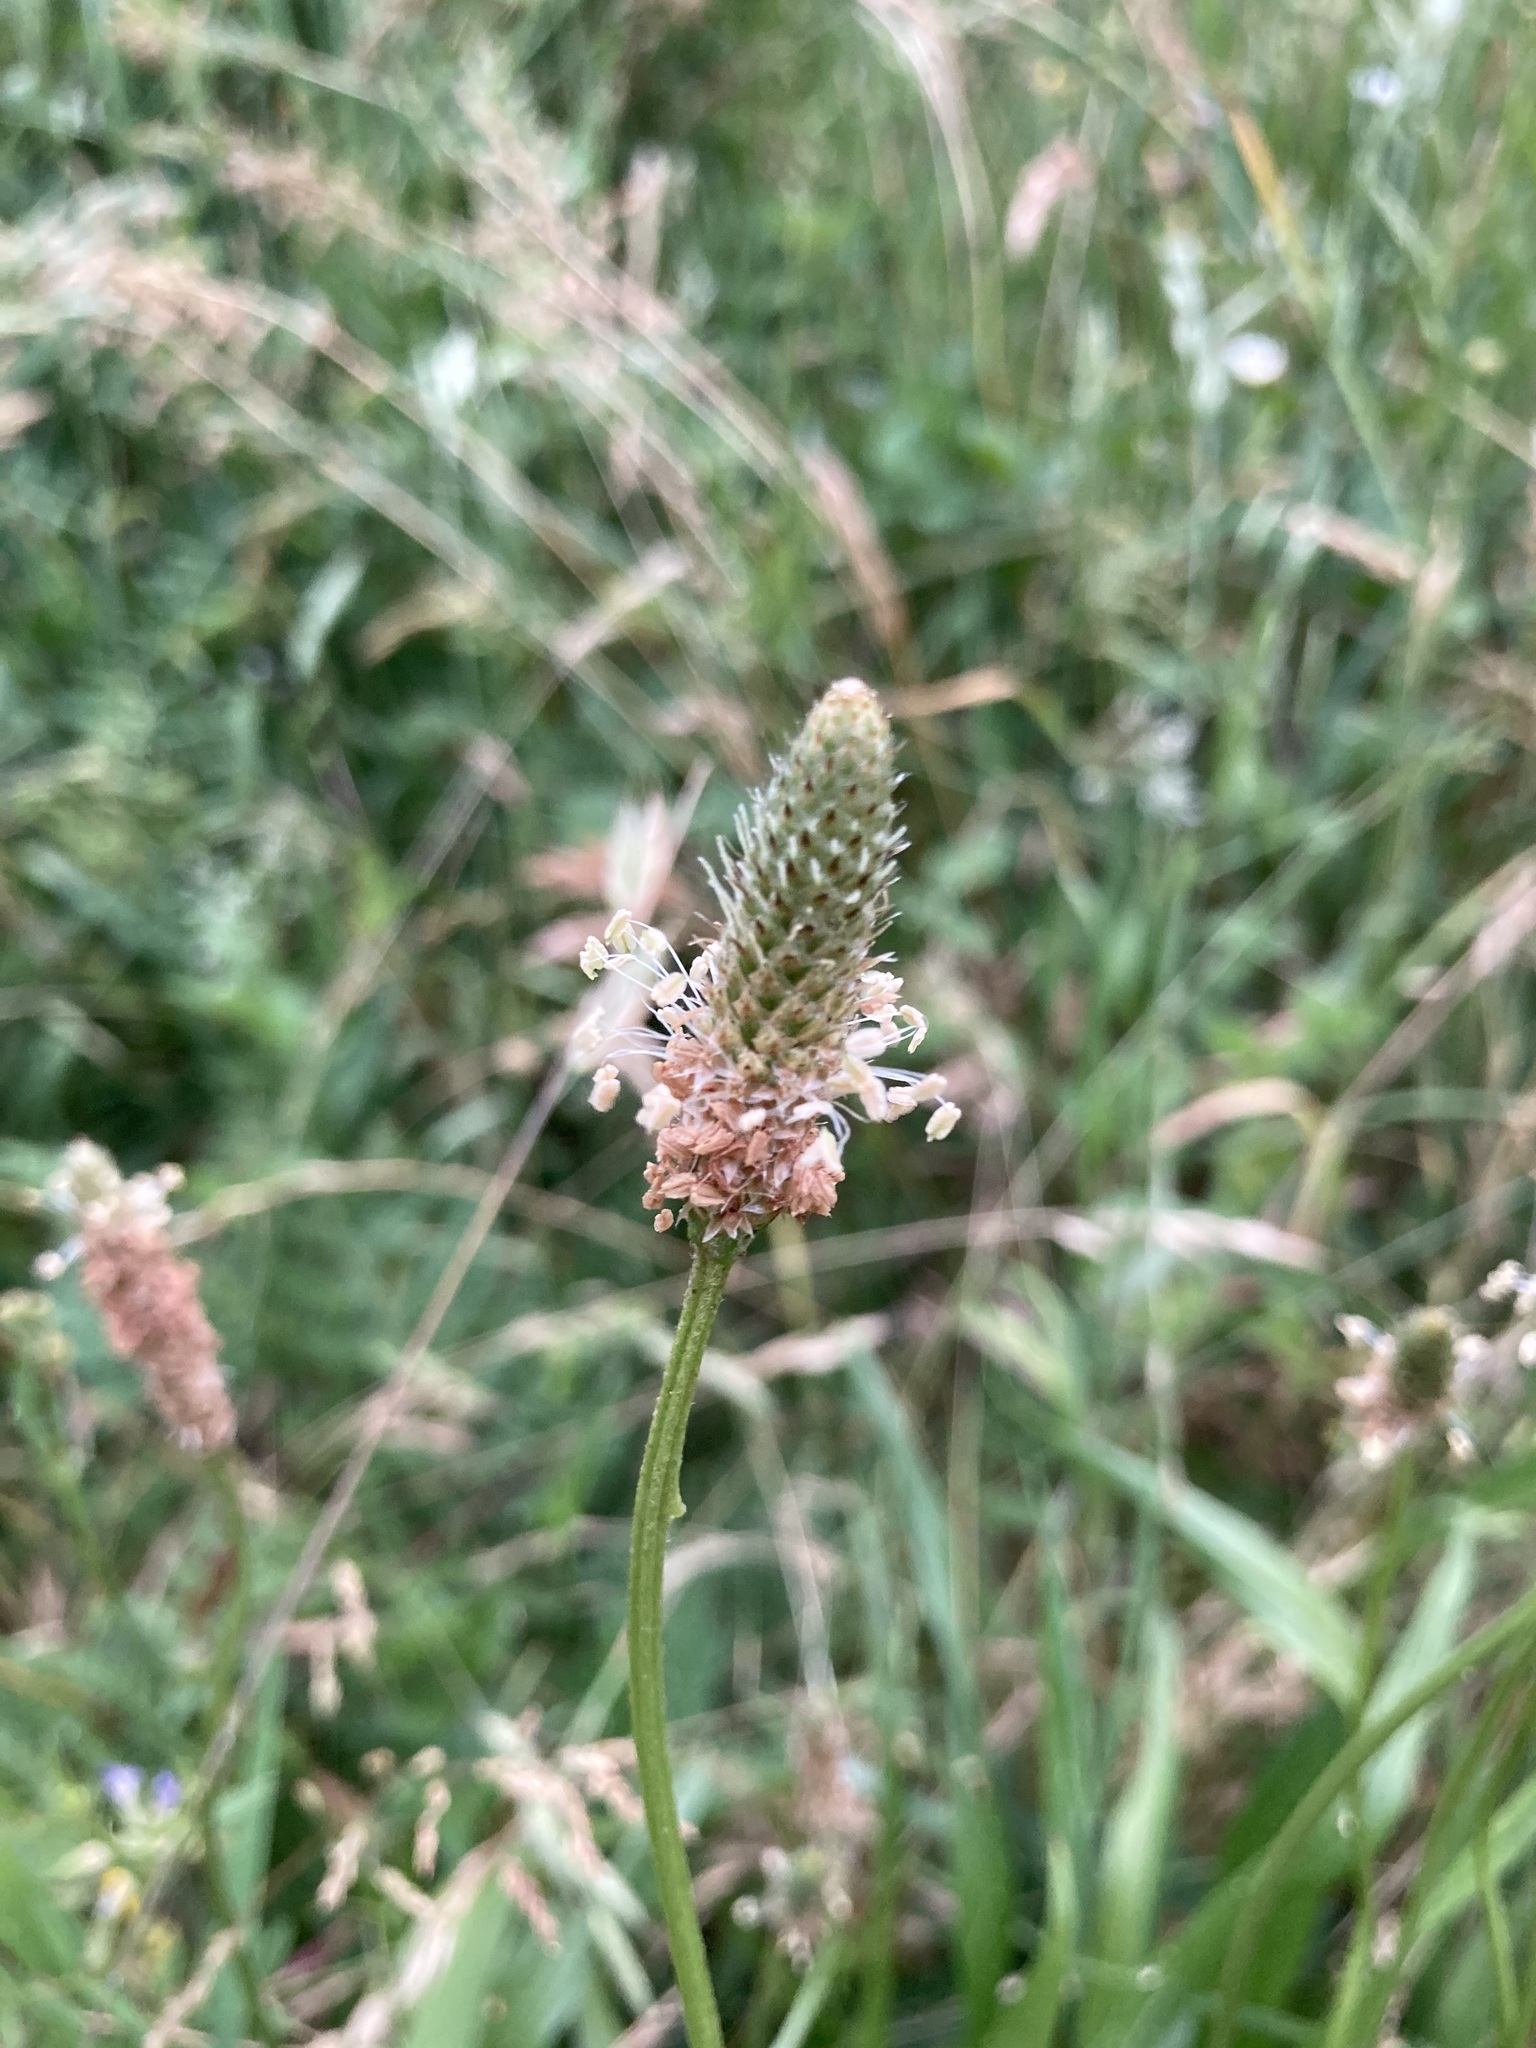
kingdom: Plantae
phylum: Tracheophyta
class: Magnoliopsida
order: Lamiales
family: Plantaginaceae
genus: Plantago
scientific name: Plantago lanceolata
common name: Ribwort plantain
